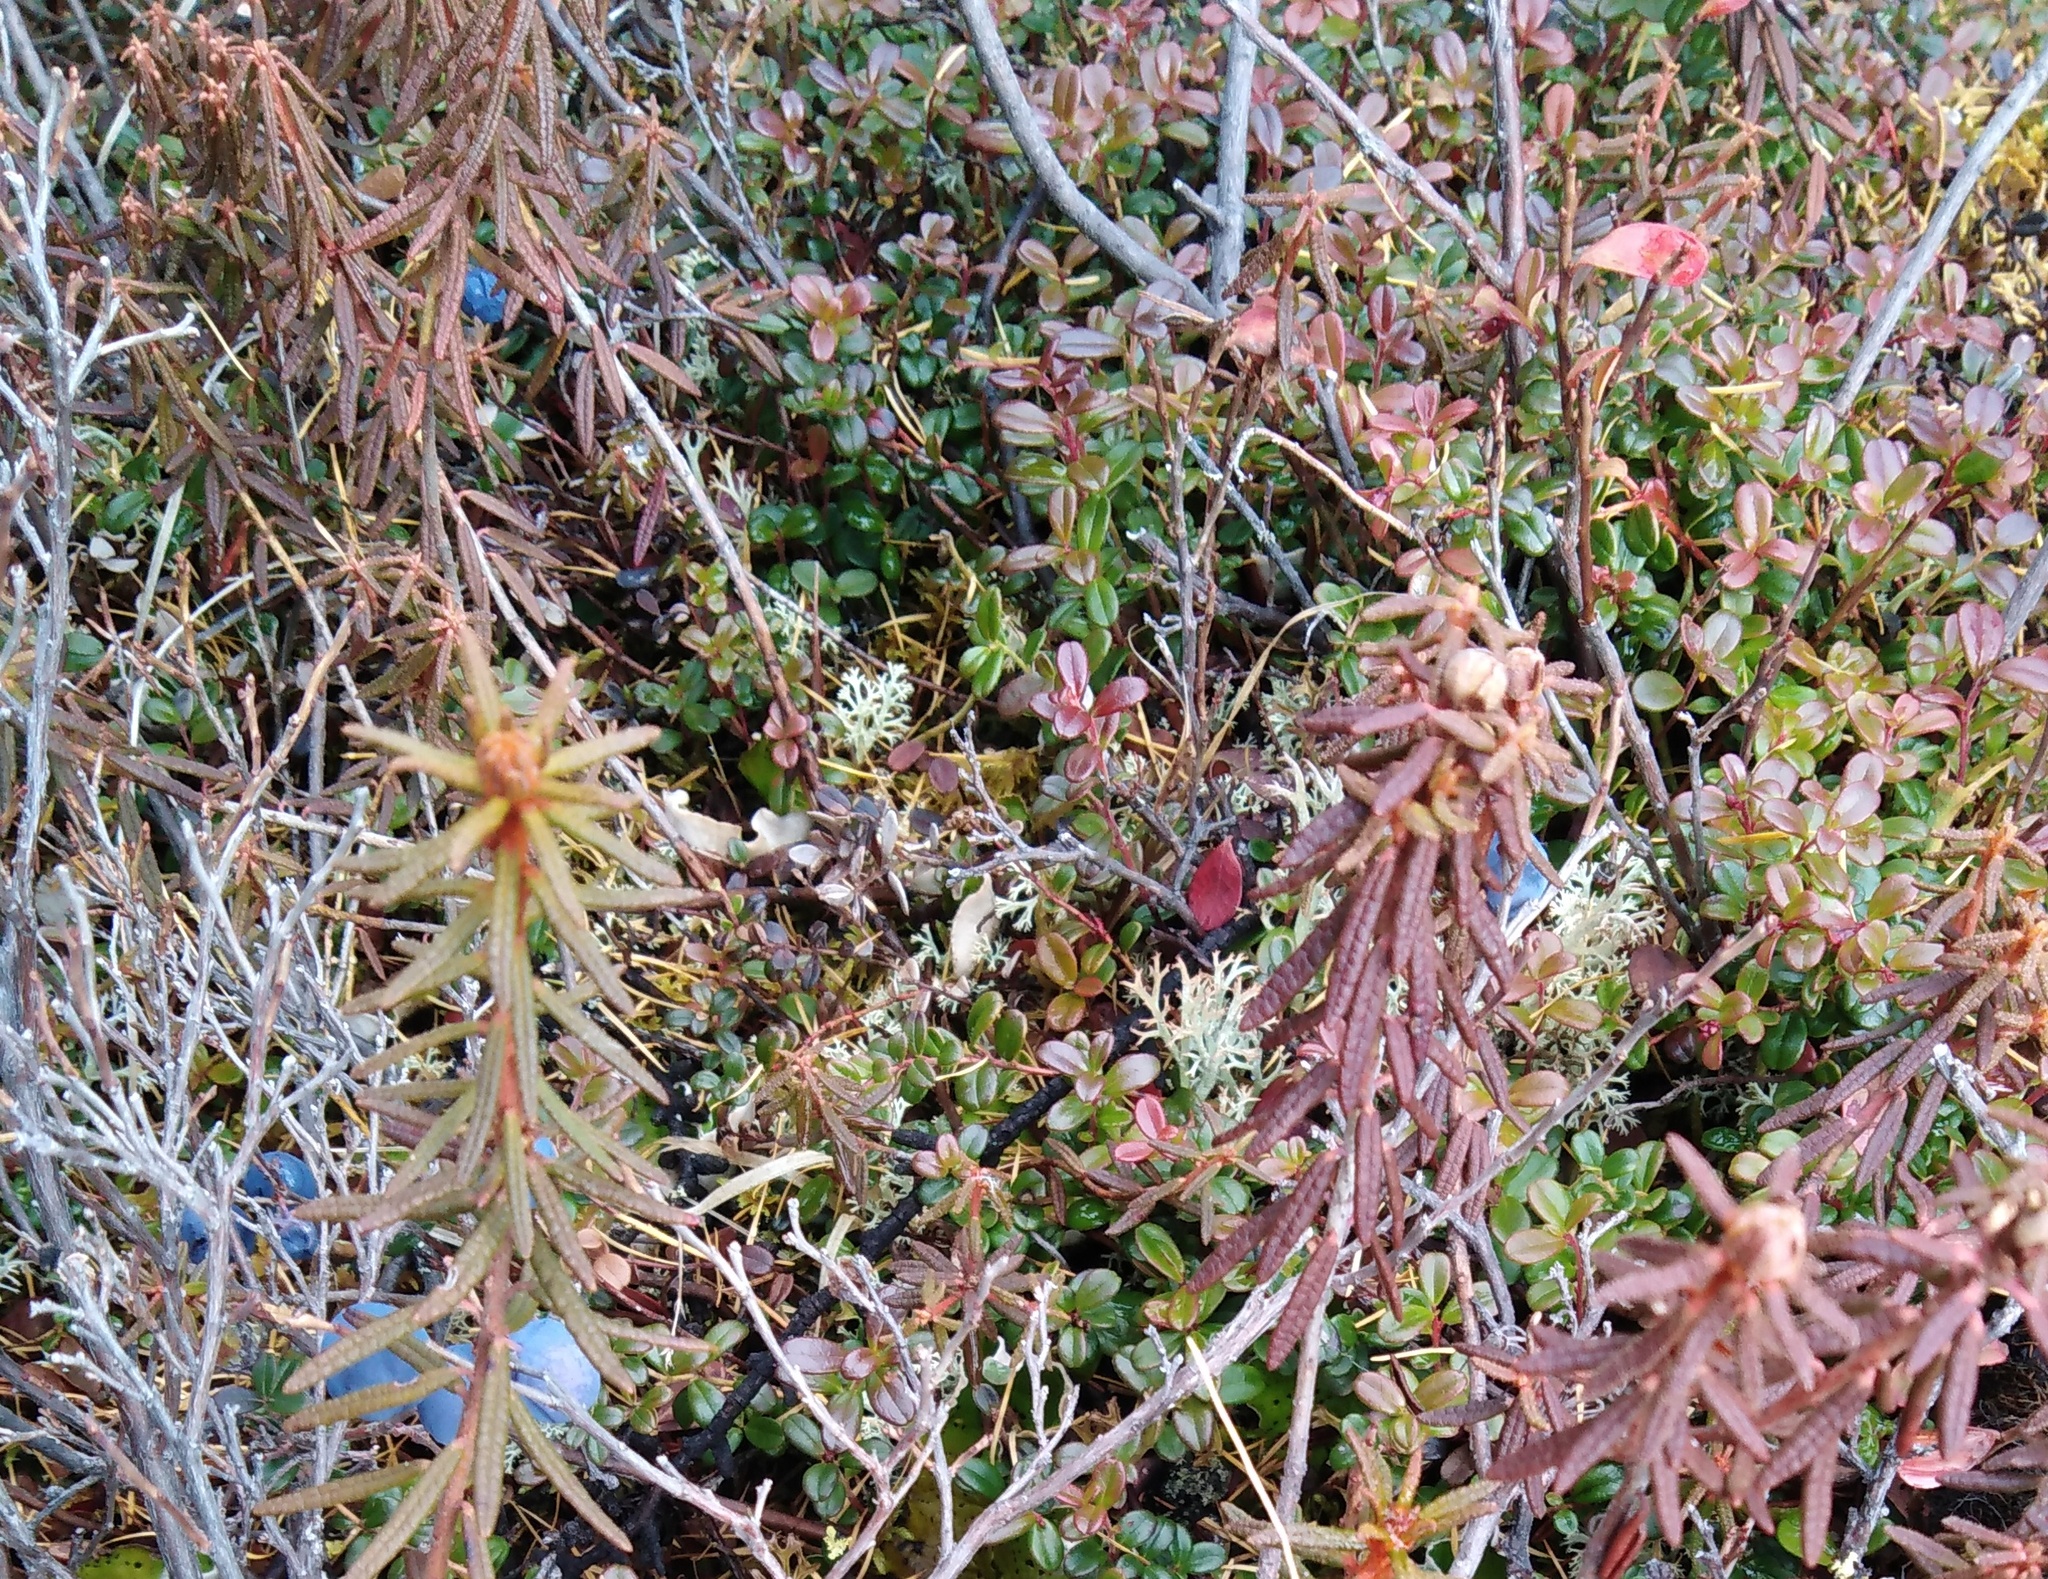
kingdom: Plantae
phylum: Tracheophyta
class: Magnoliopsida
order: Ericales
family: Ericaceae
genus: Rhododendron
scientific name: Rhododendron tomentosum
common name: Marsh labrador tea
